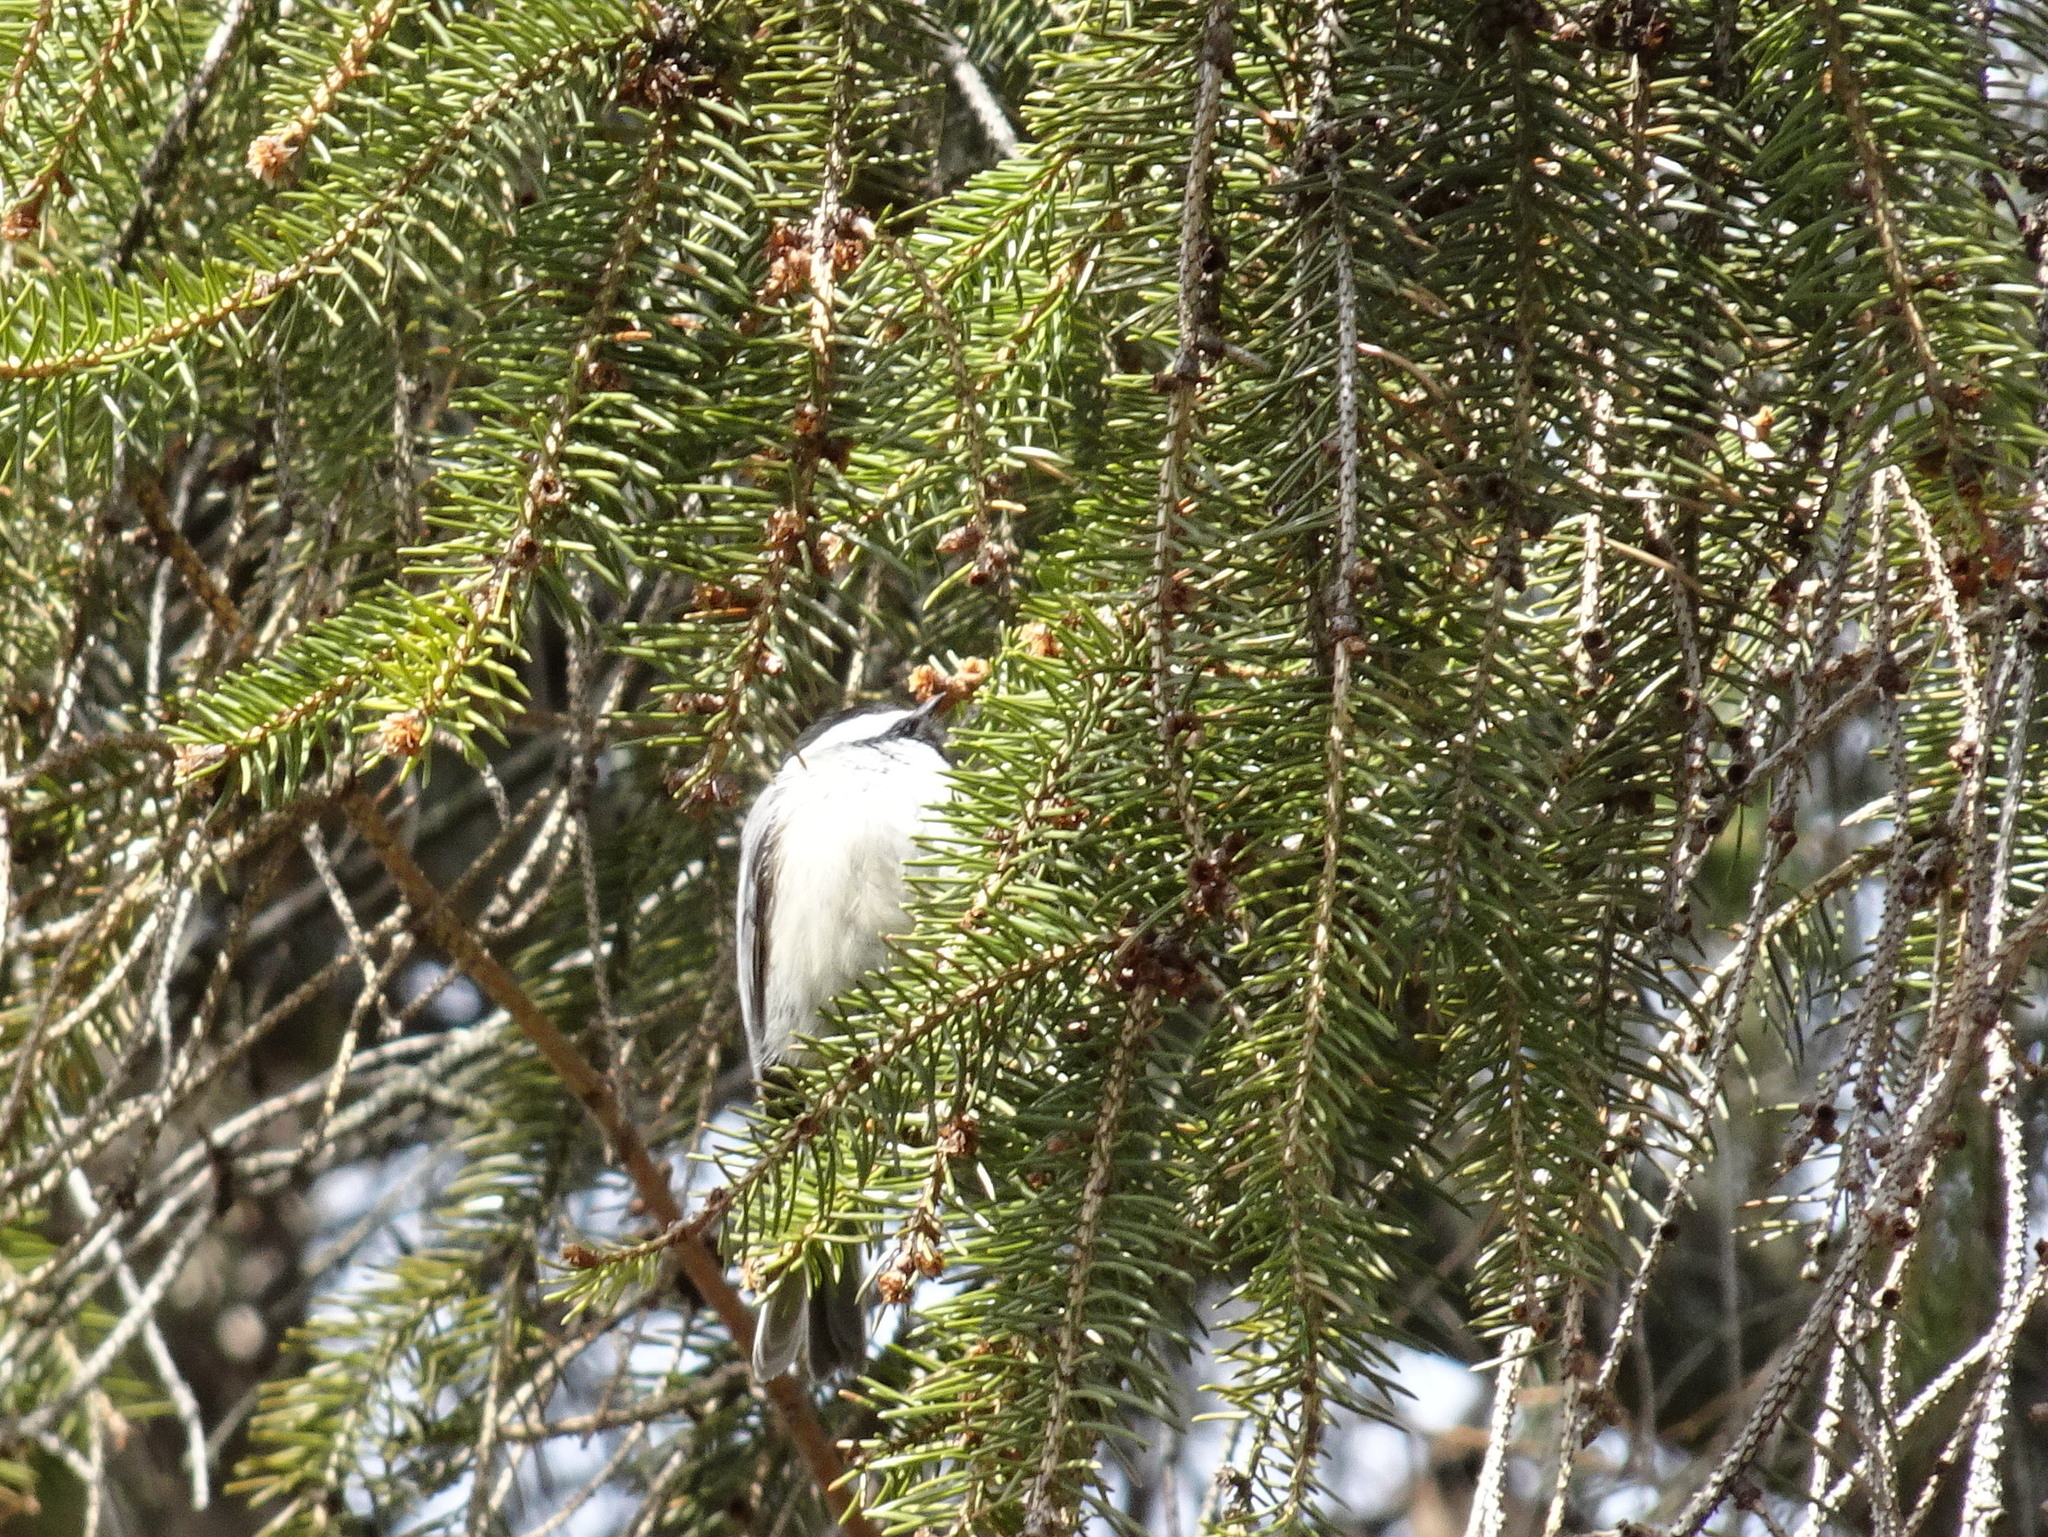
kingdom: Animalia
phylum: Chordata
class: Aves
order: Passeriformes
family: Paridae
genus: Poecile
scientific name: Poecile atricapillus
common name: Black-capped chickadee
